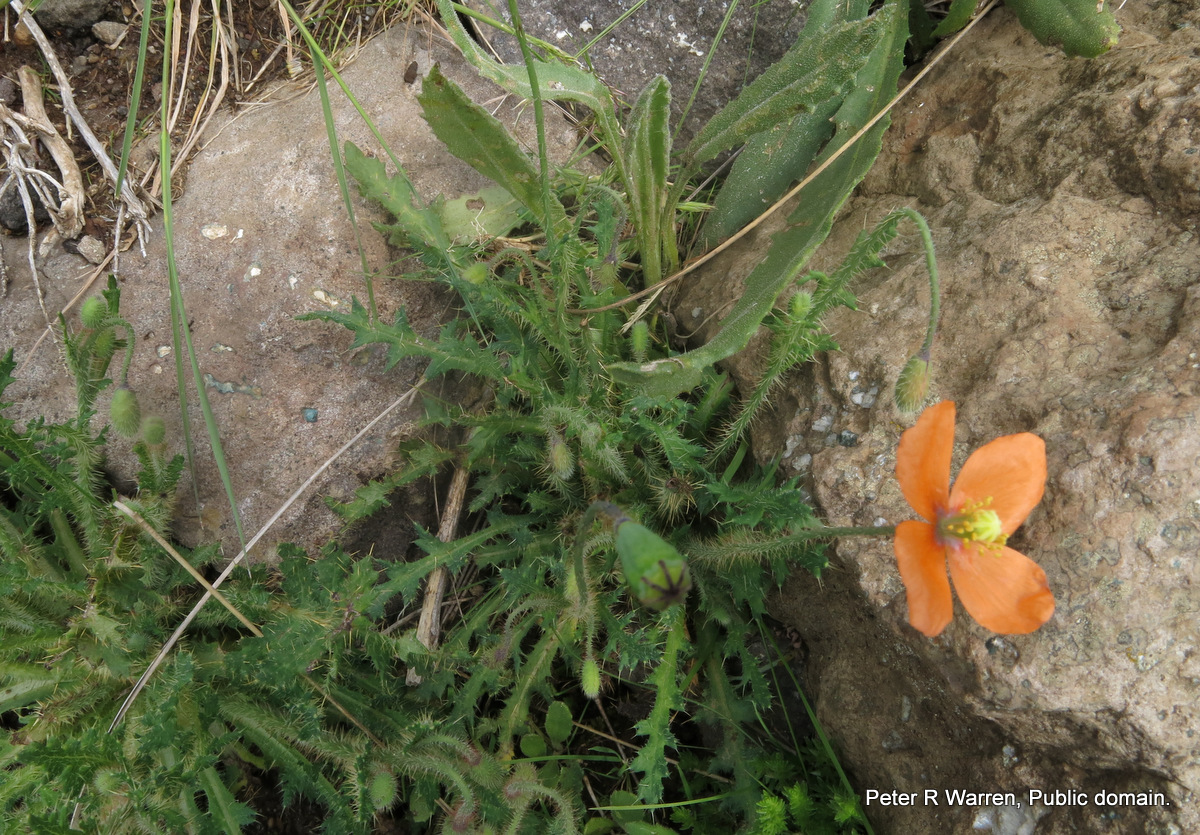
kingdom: Plantae
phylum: Tracheophyta
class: Magnoliopsida
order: Ranunculales
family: Papaveraceae
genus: Papaver
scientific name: Papaver aculeatum
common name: Bristle poppy
